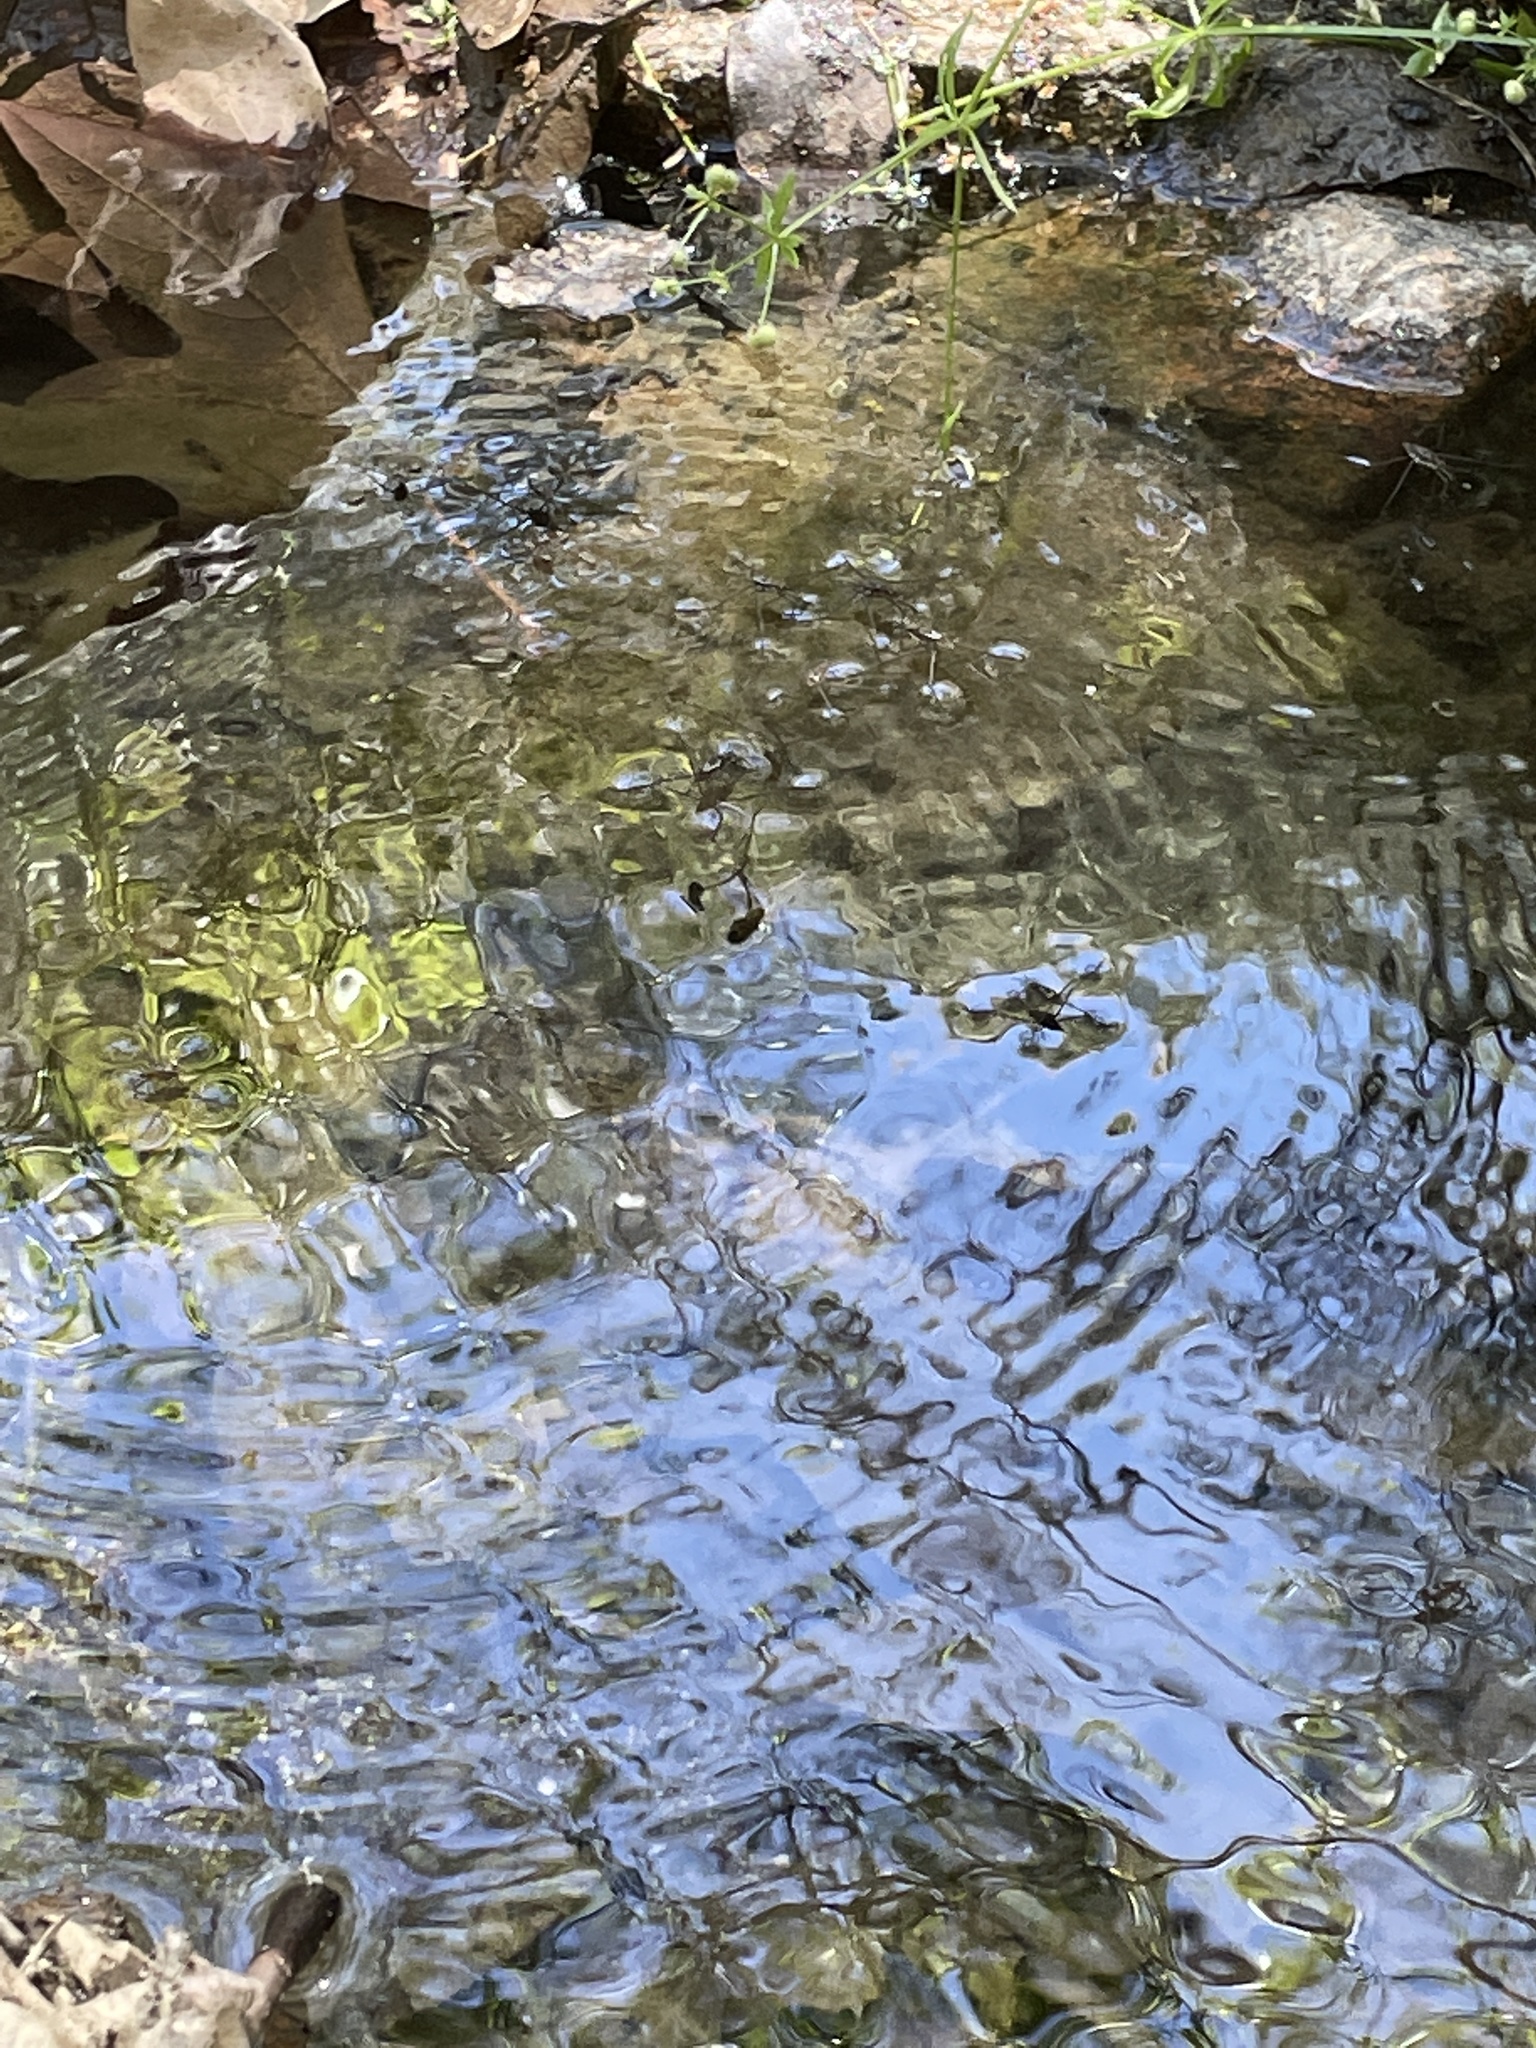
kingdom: Animalia
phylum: Arthropoda
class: Insecta
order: Hemiptera
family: Gerridae
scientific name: Gerridae
